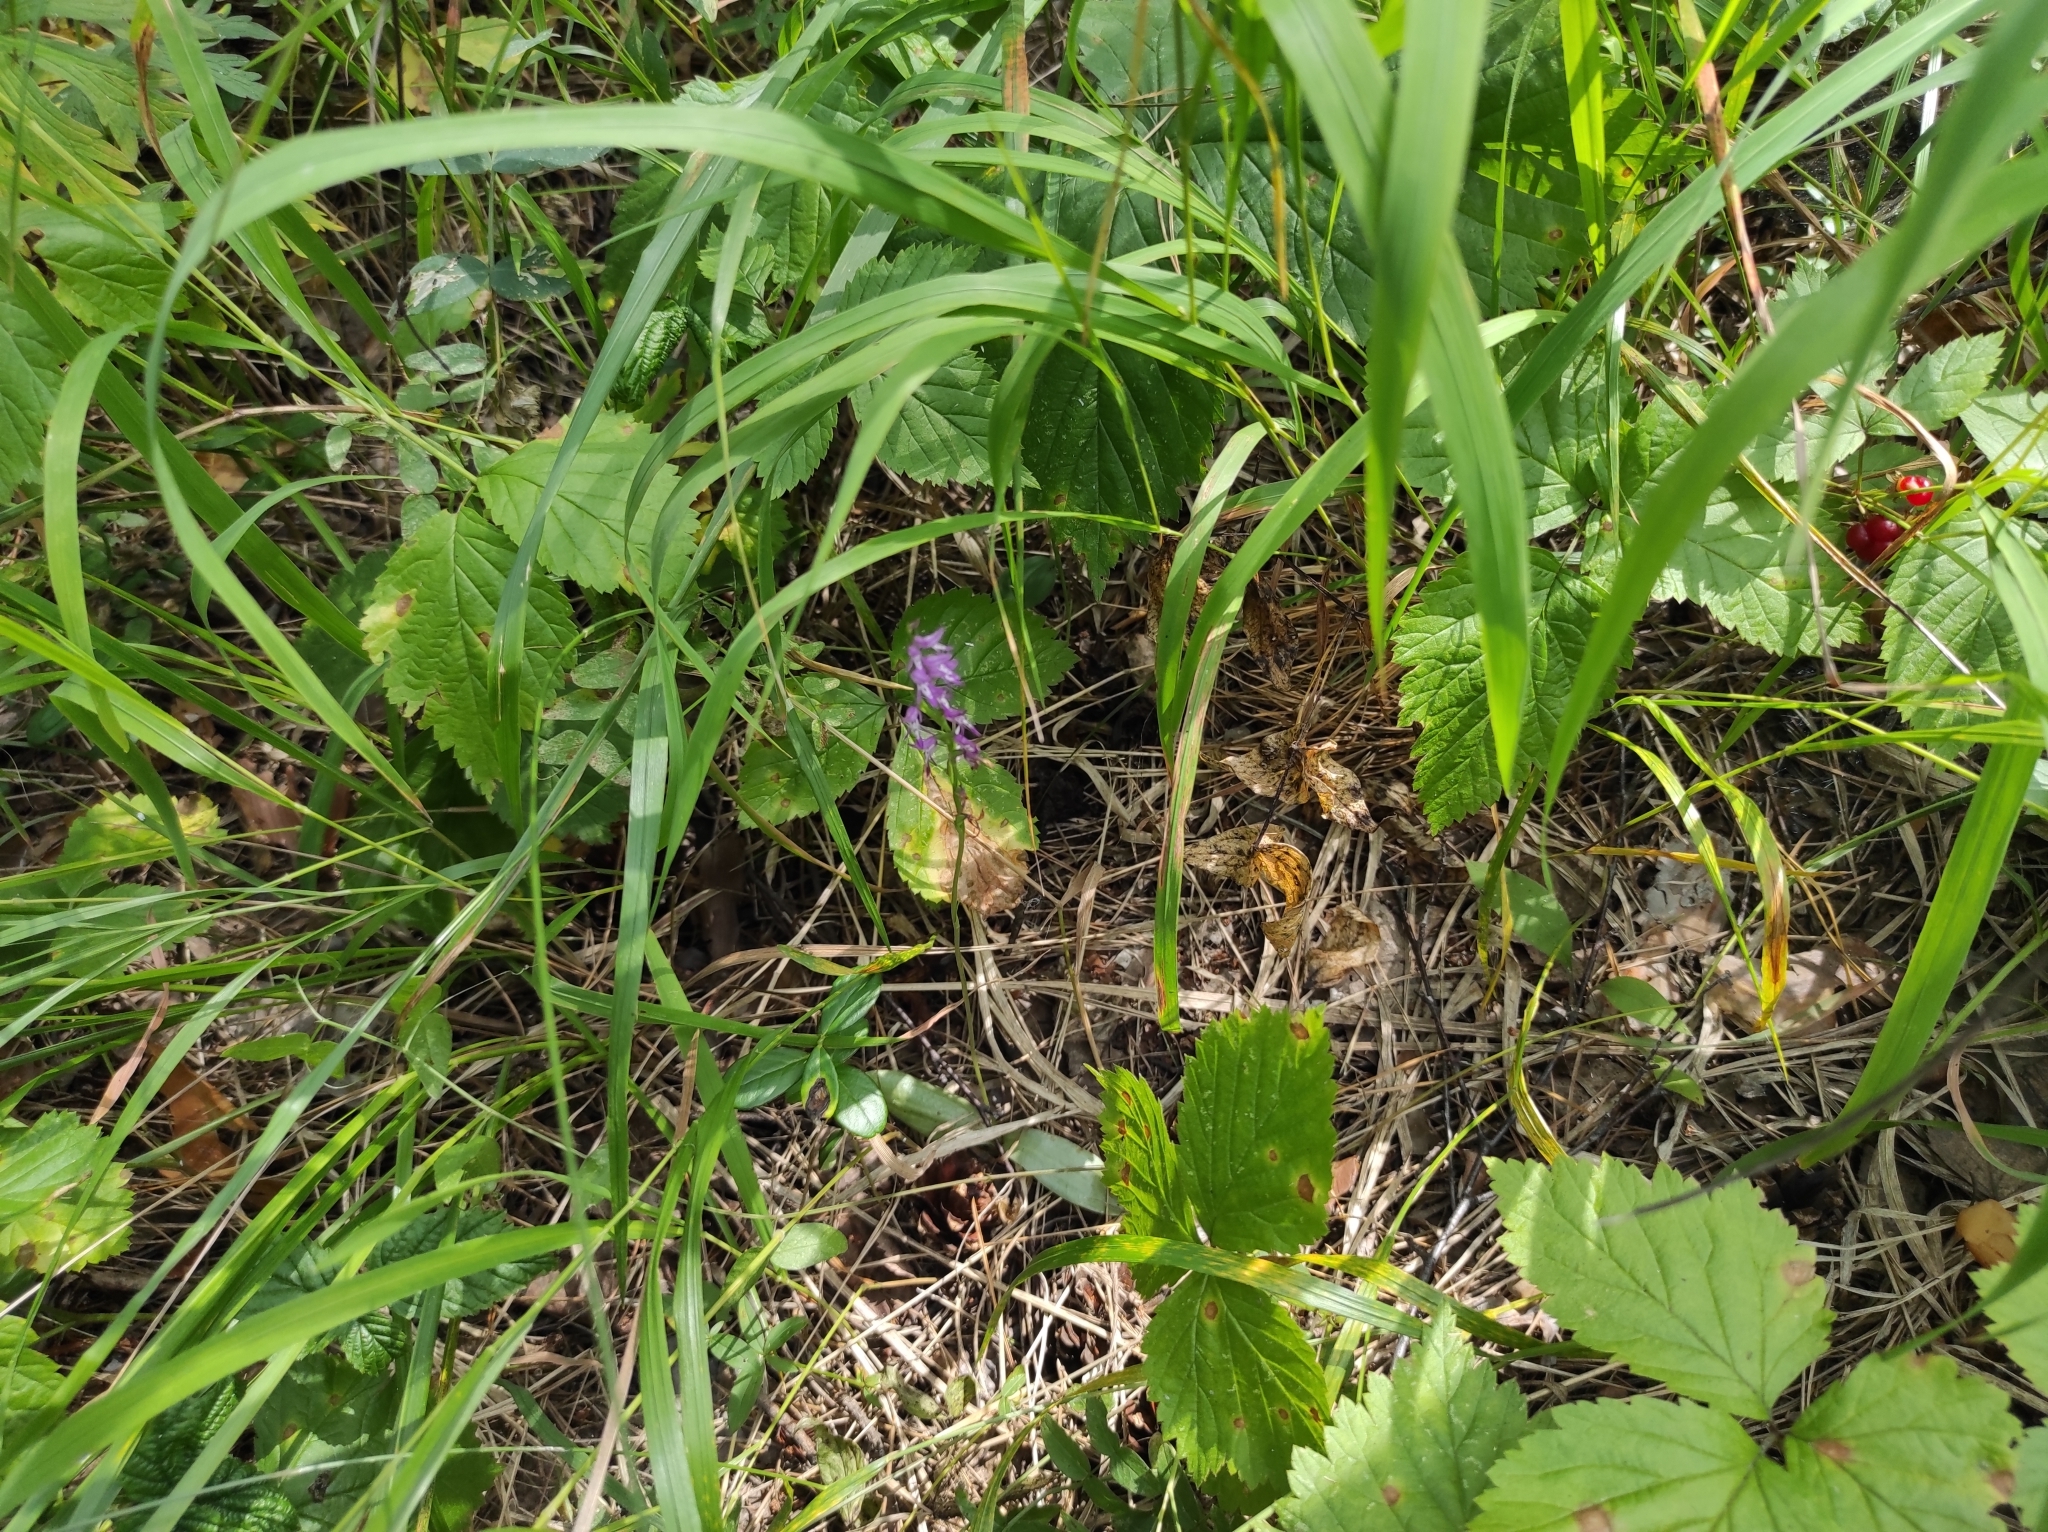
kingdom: Plantae
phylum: Tracheophyta
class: Liliopsida
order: Asparagales
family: Orchidaceae
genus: Hemipilia
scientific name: Hemipilia cucullata
